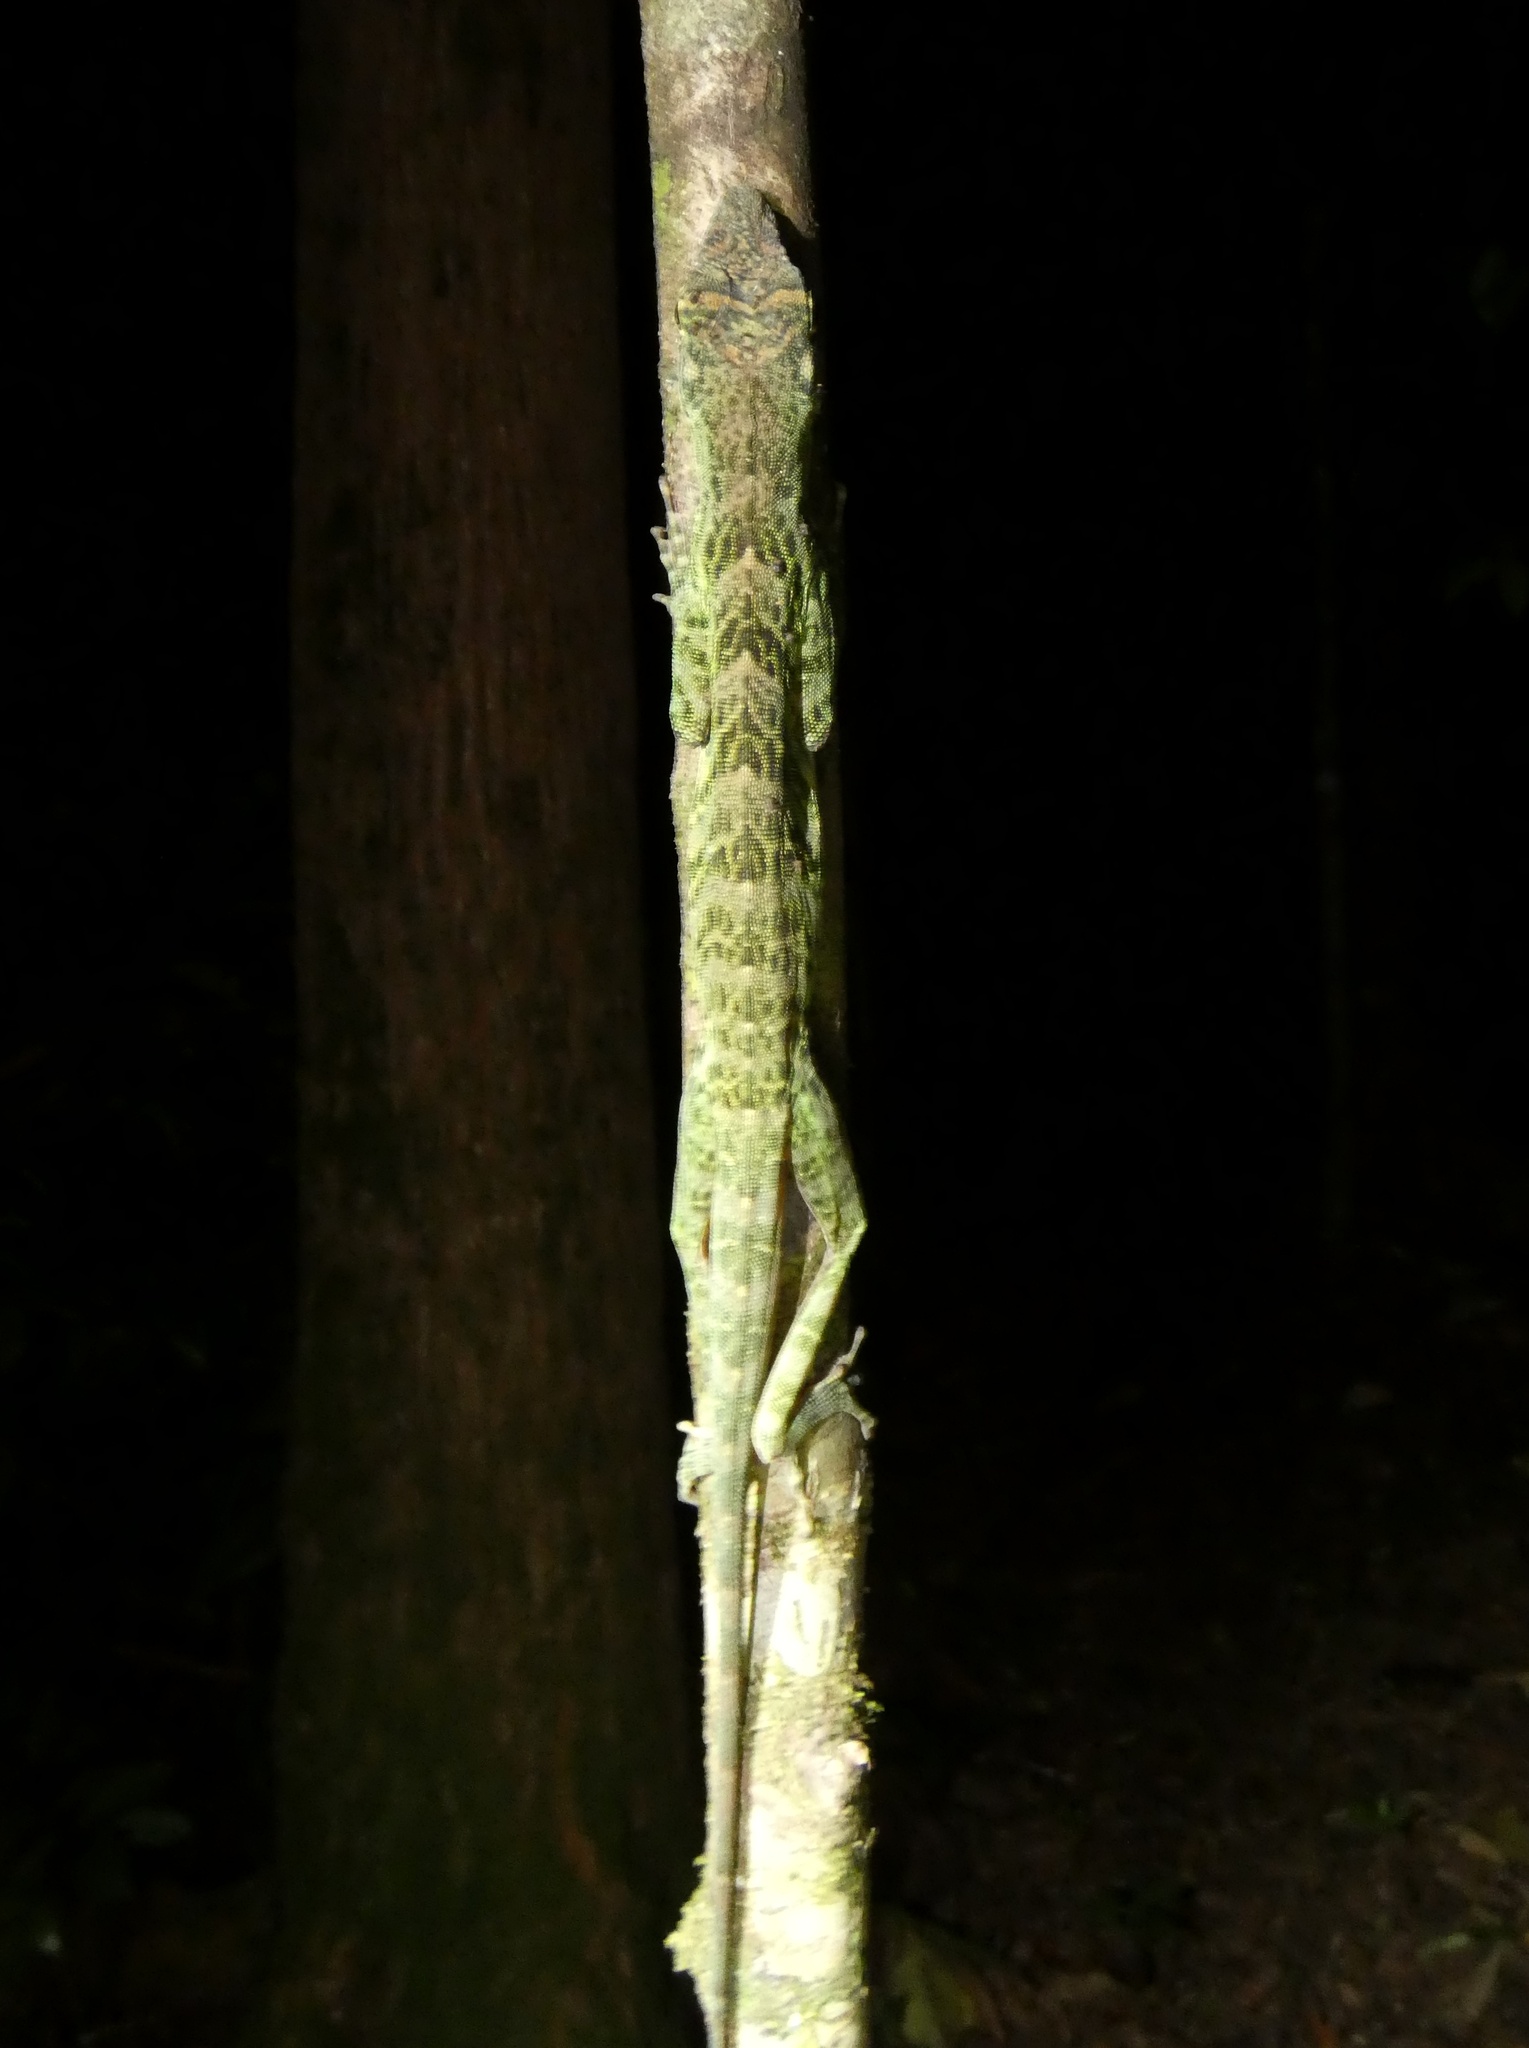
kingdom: Animalia
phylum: Chordata
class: Squamata
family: Dactyloidae
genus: Anolis
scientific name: Anolis frenatus
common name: Bridled anole
